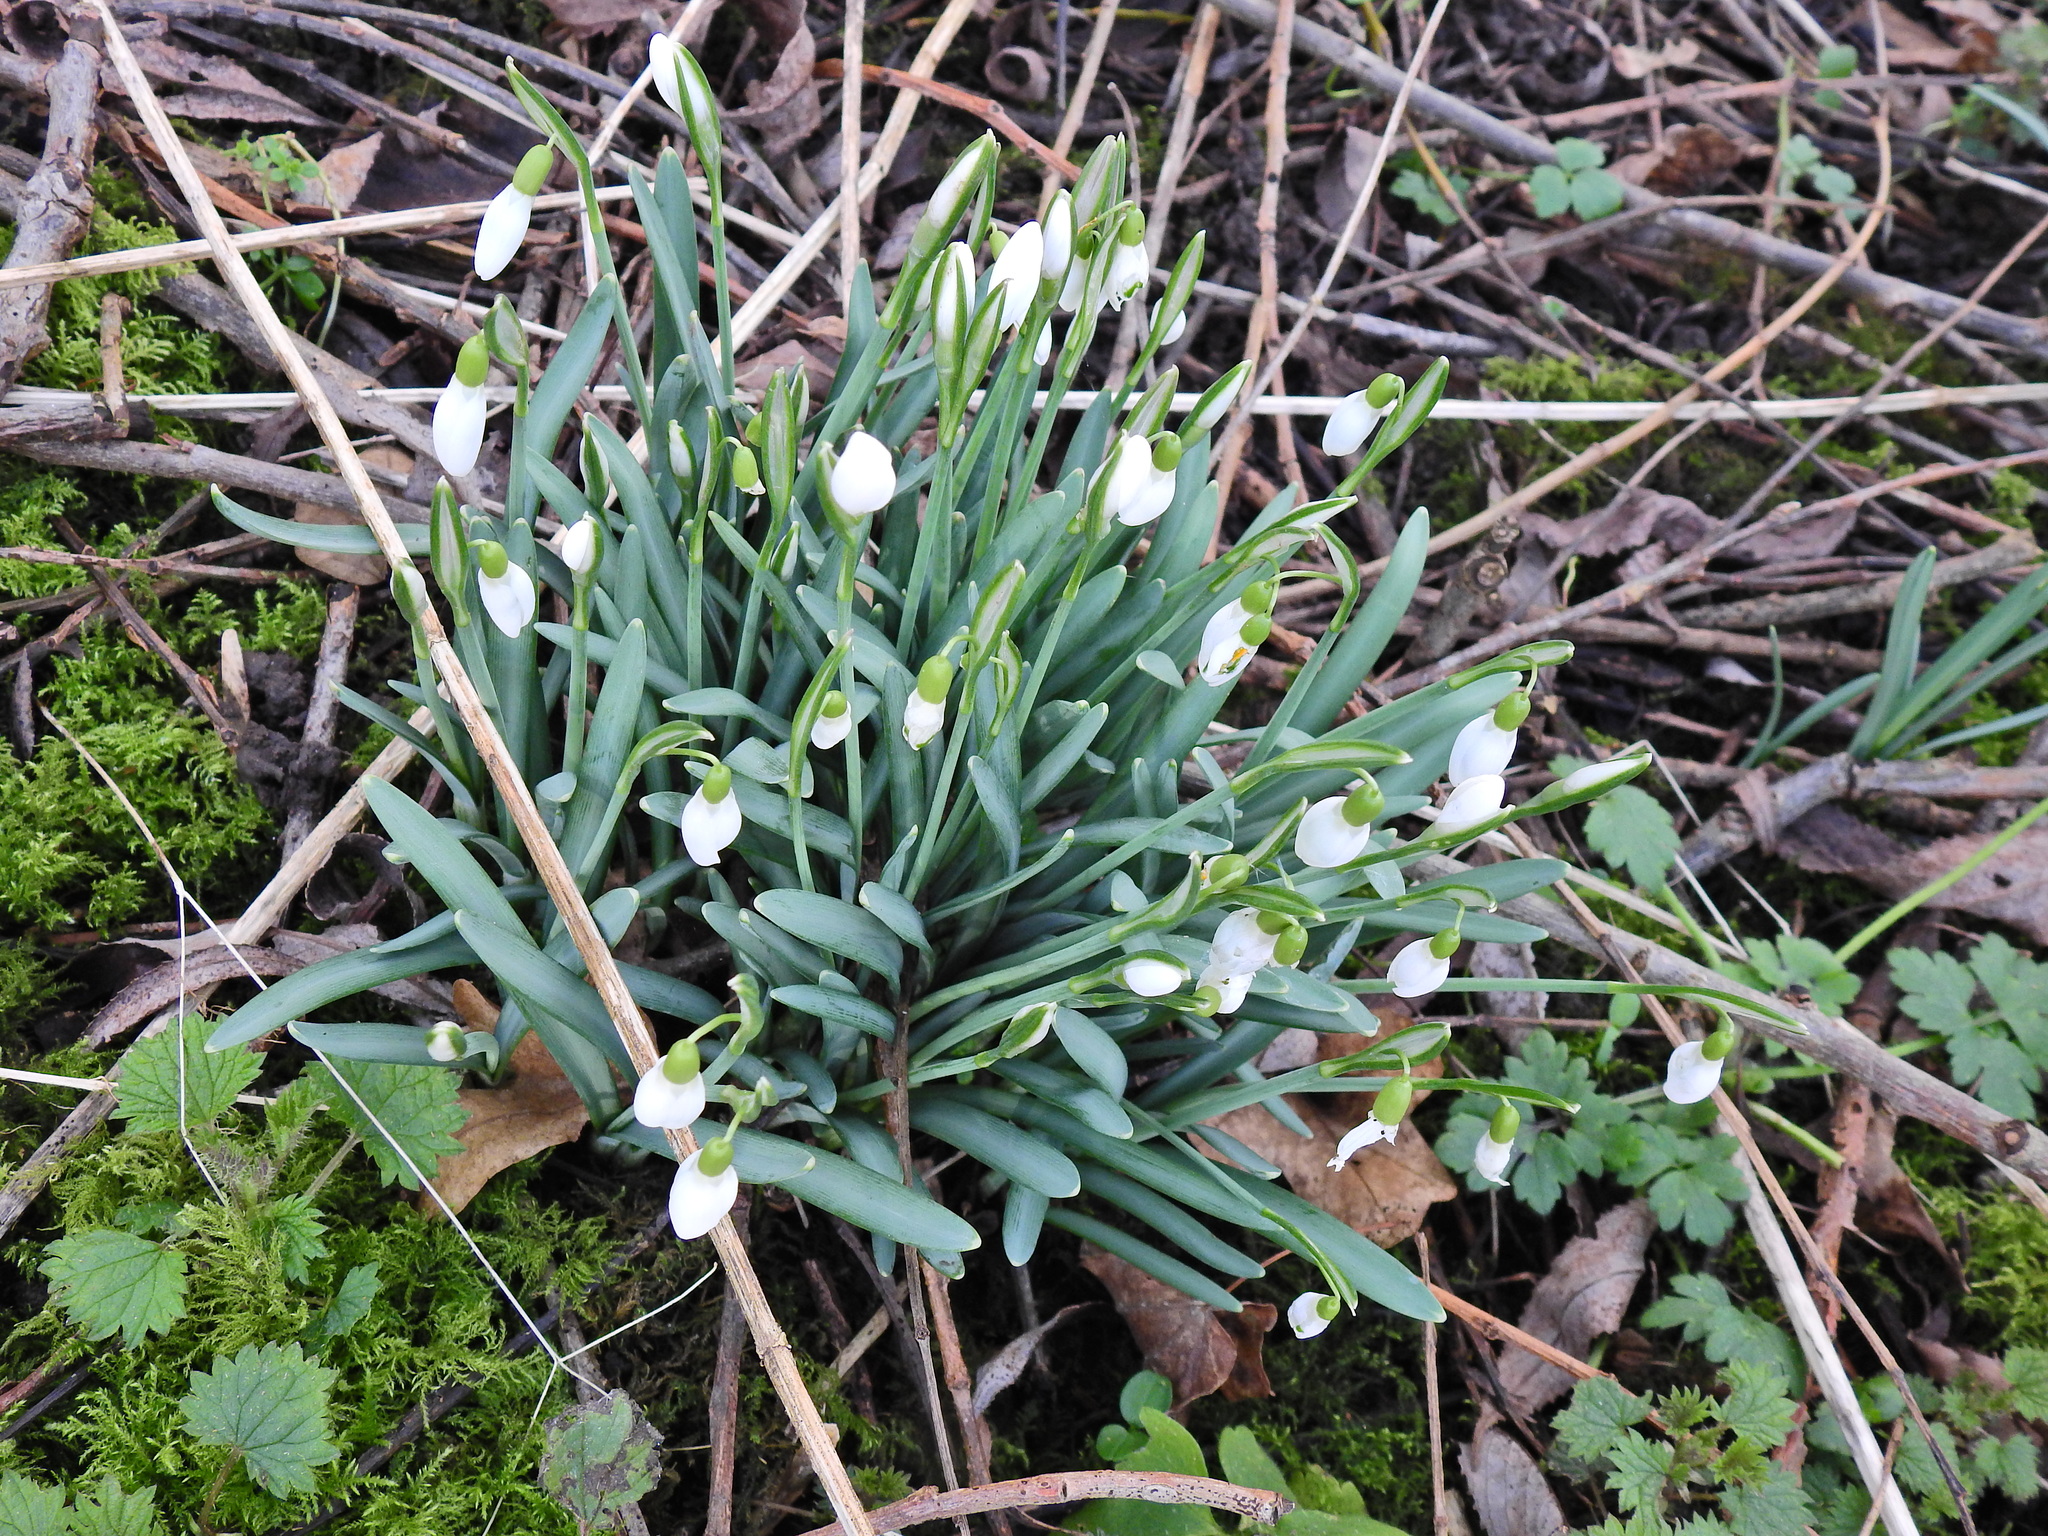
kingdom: Plantae
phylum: Tracheophyta
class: Liliopsida
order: Asparagales
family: Amaryllidaceae
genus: Galanthus
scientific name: Galanthus nivalis
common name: Snowdrop
